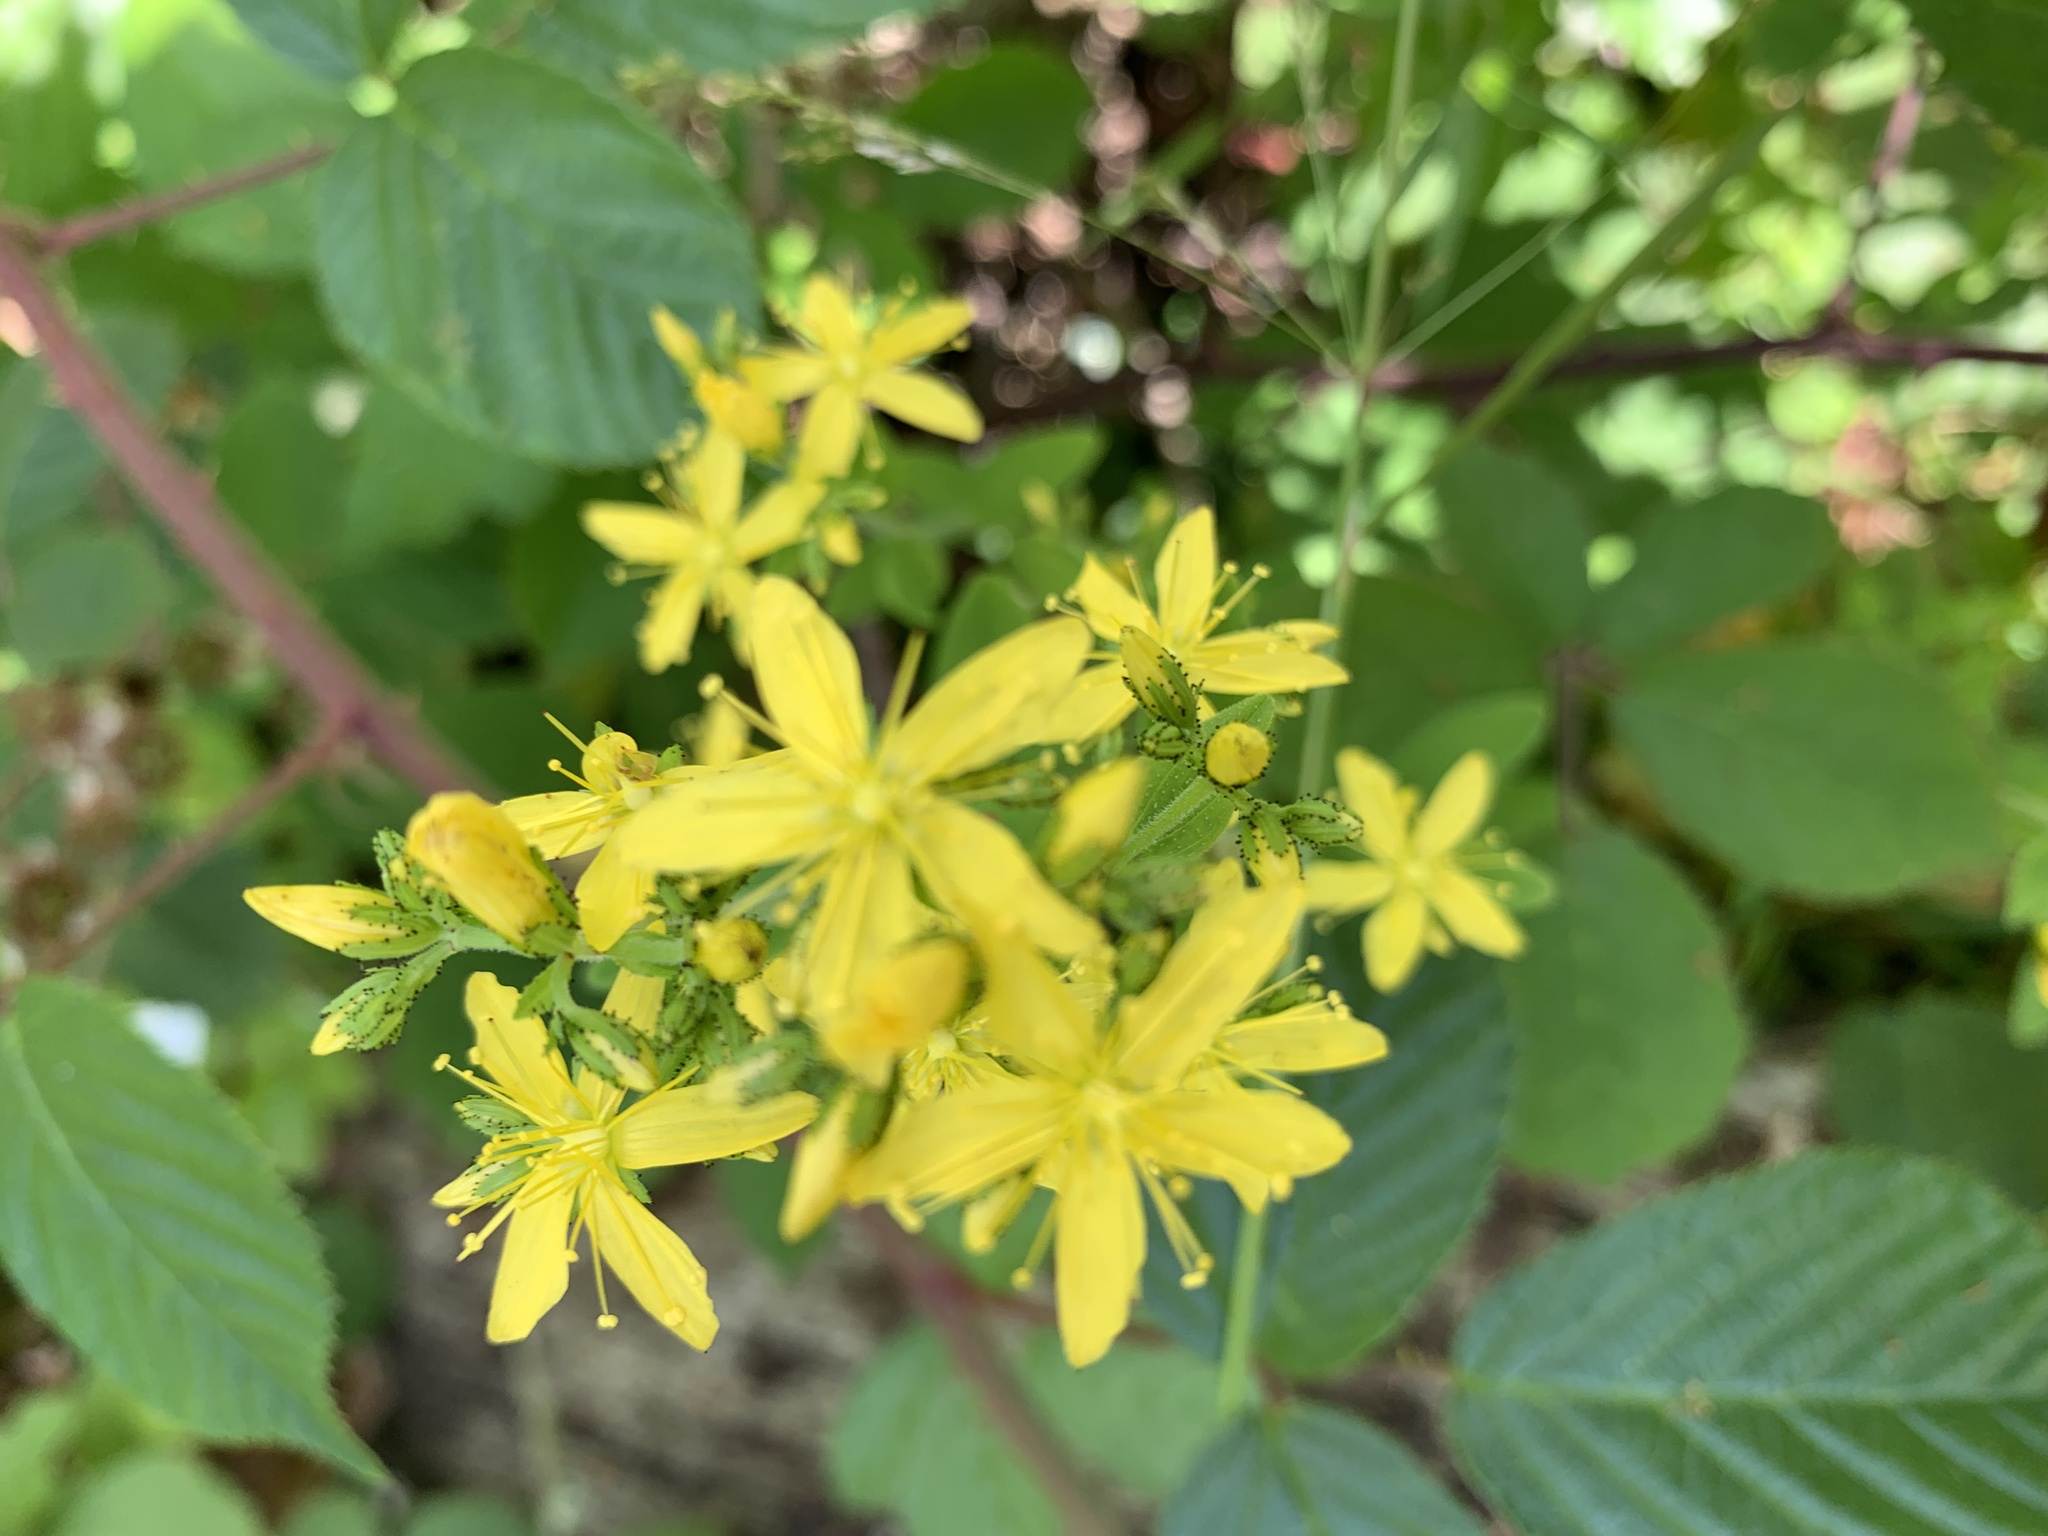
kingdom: Plantae
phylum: Tracheophyta
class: Magnoliopsida
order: Malpighiales
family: Hypericaceae
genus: Hypericum
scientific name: Hypericum hirsutum
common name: Hairy st. john's-wort
